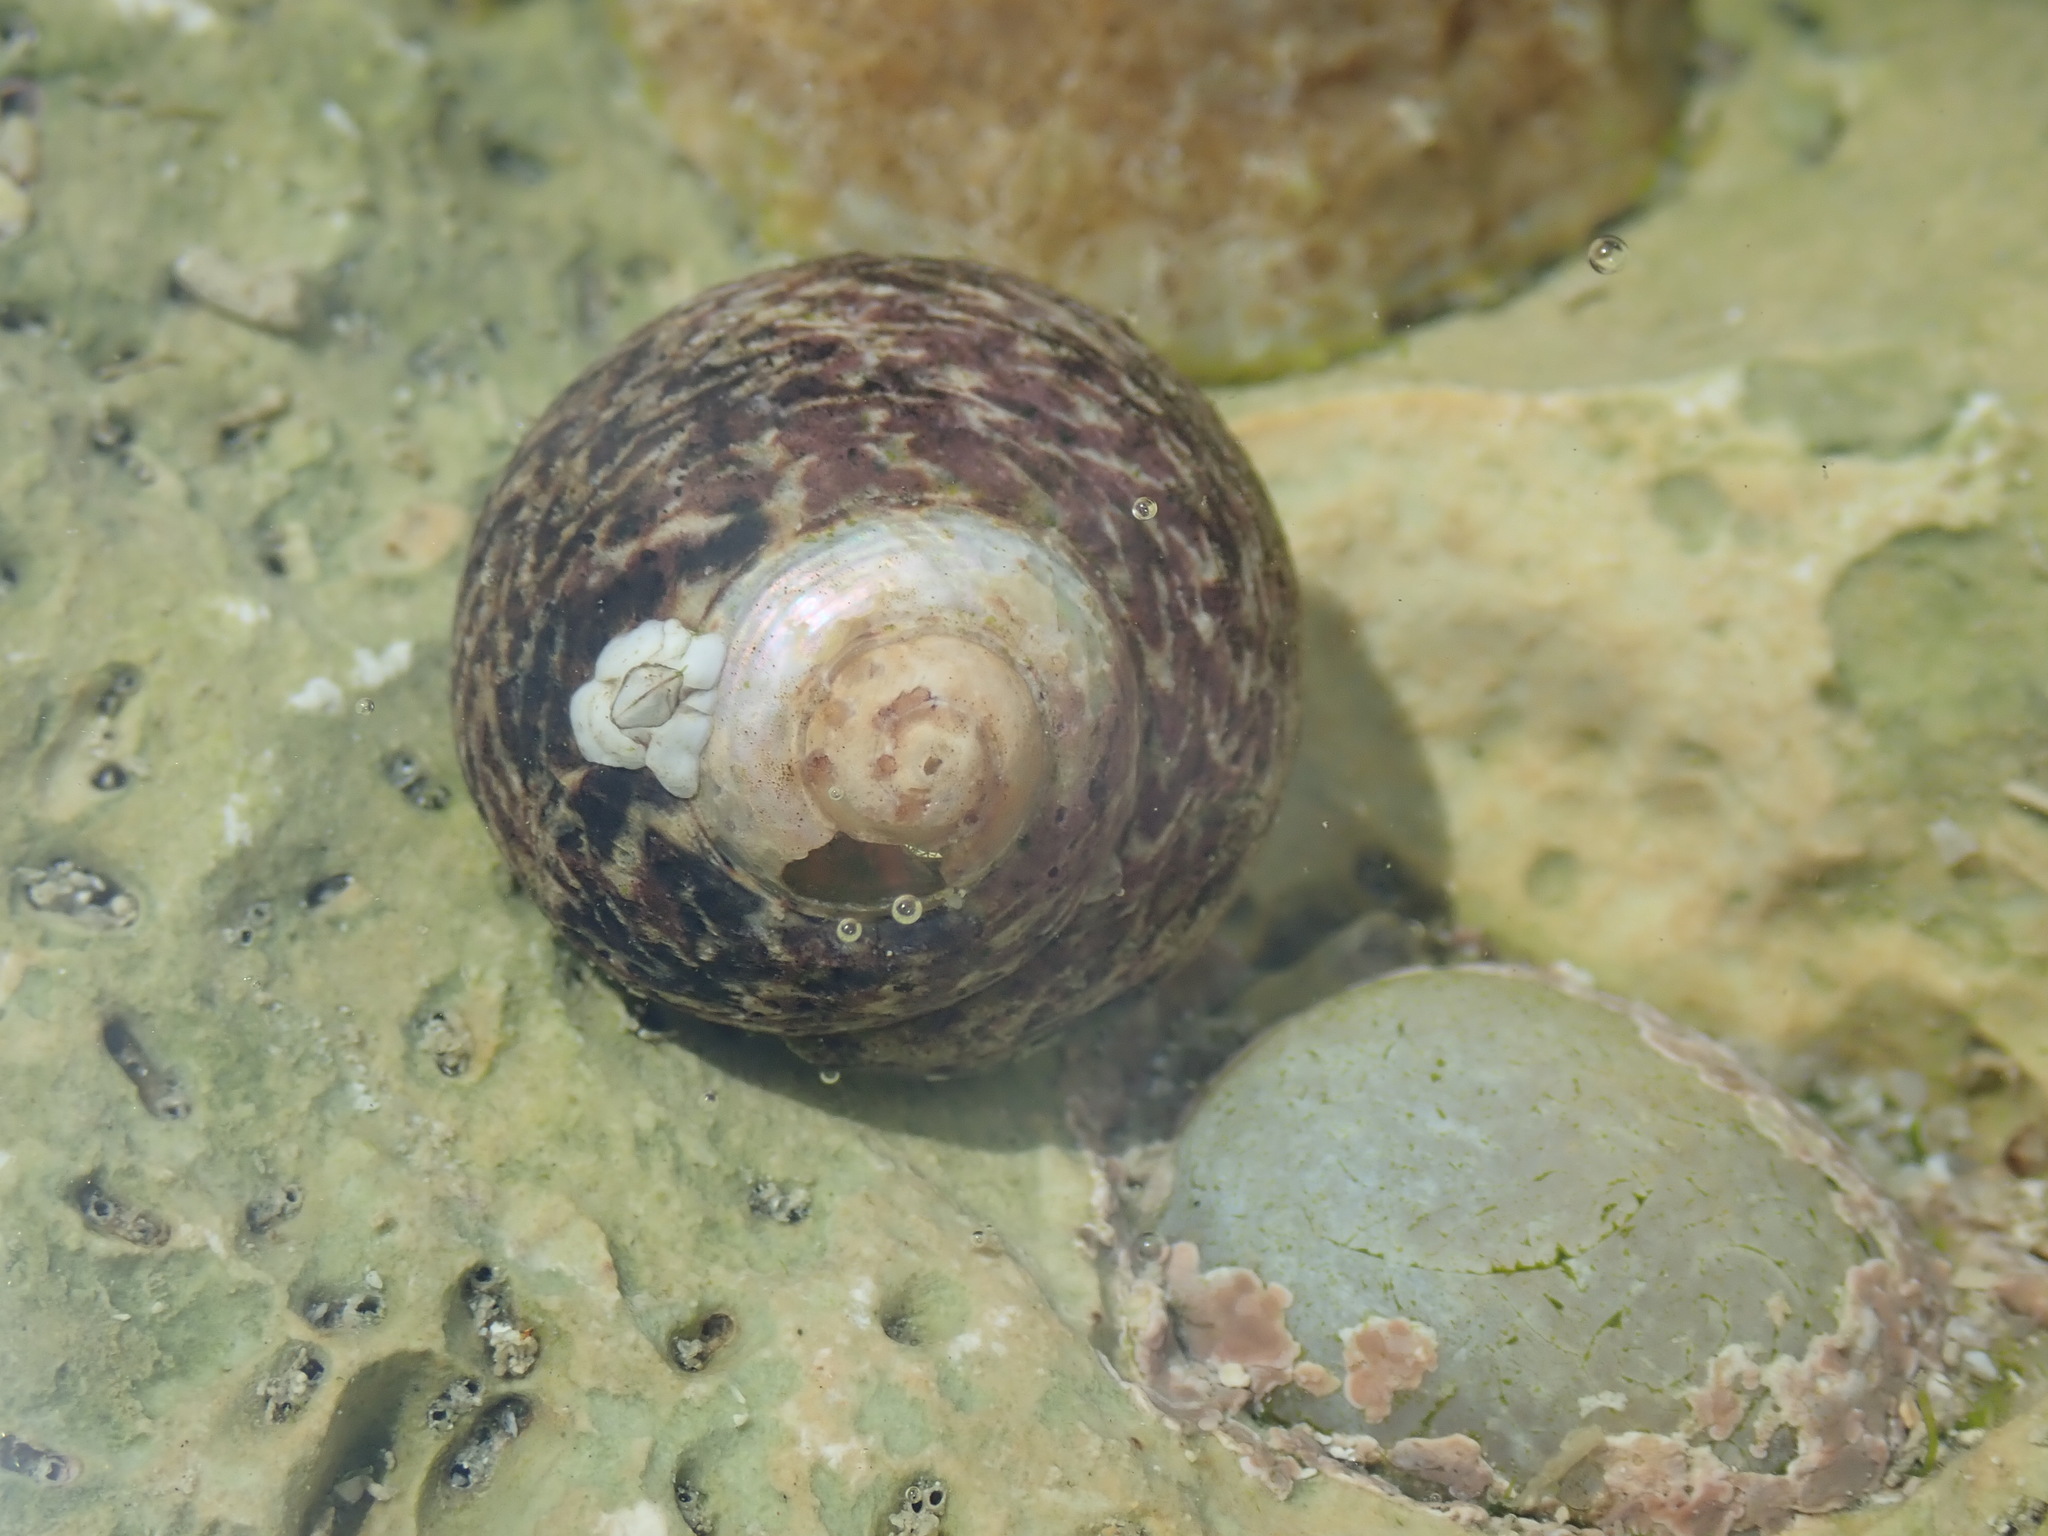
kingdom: Animalia
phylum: Mollusca
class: Gastropoda
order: Trochida
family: Trochidae
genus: Phorcus
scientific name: Phorcus lineatus
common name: Toothed top shell
